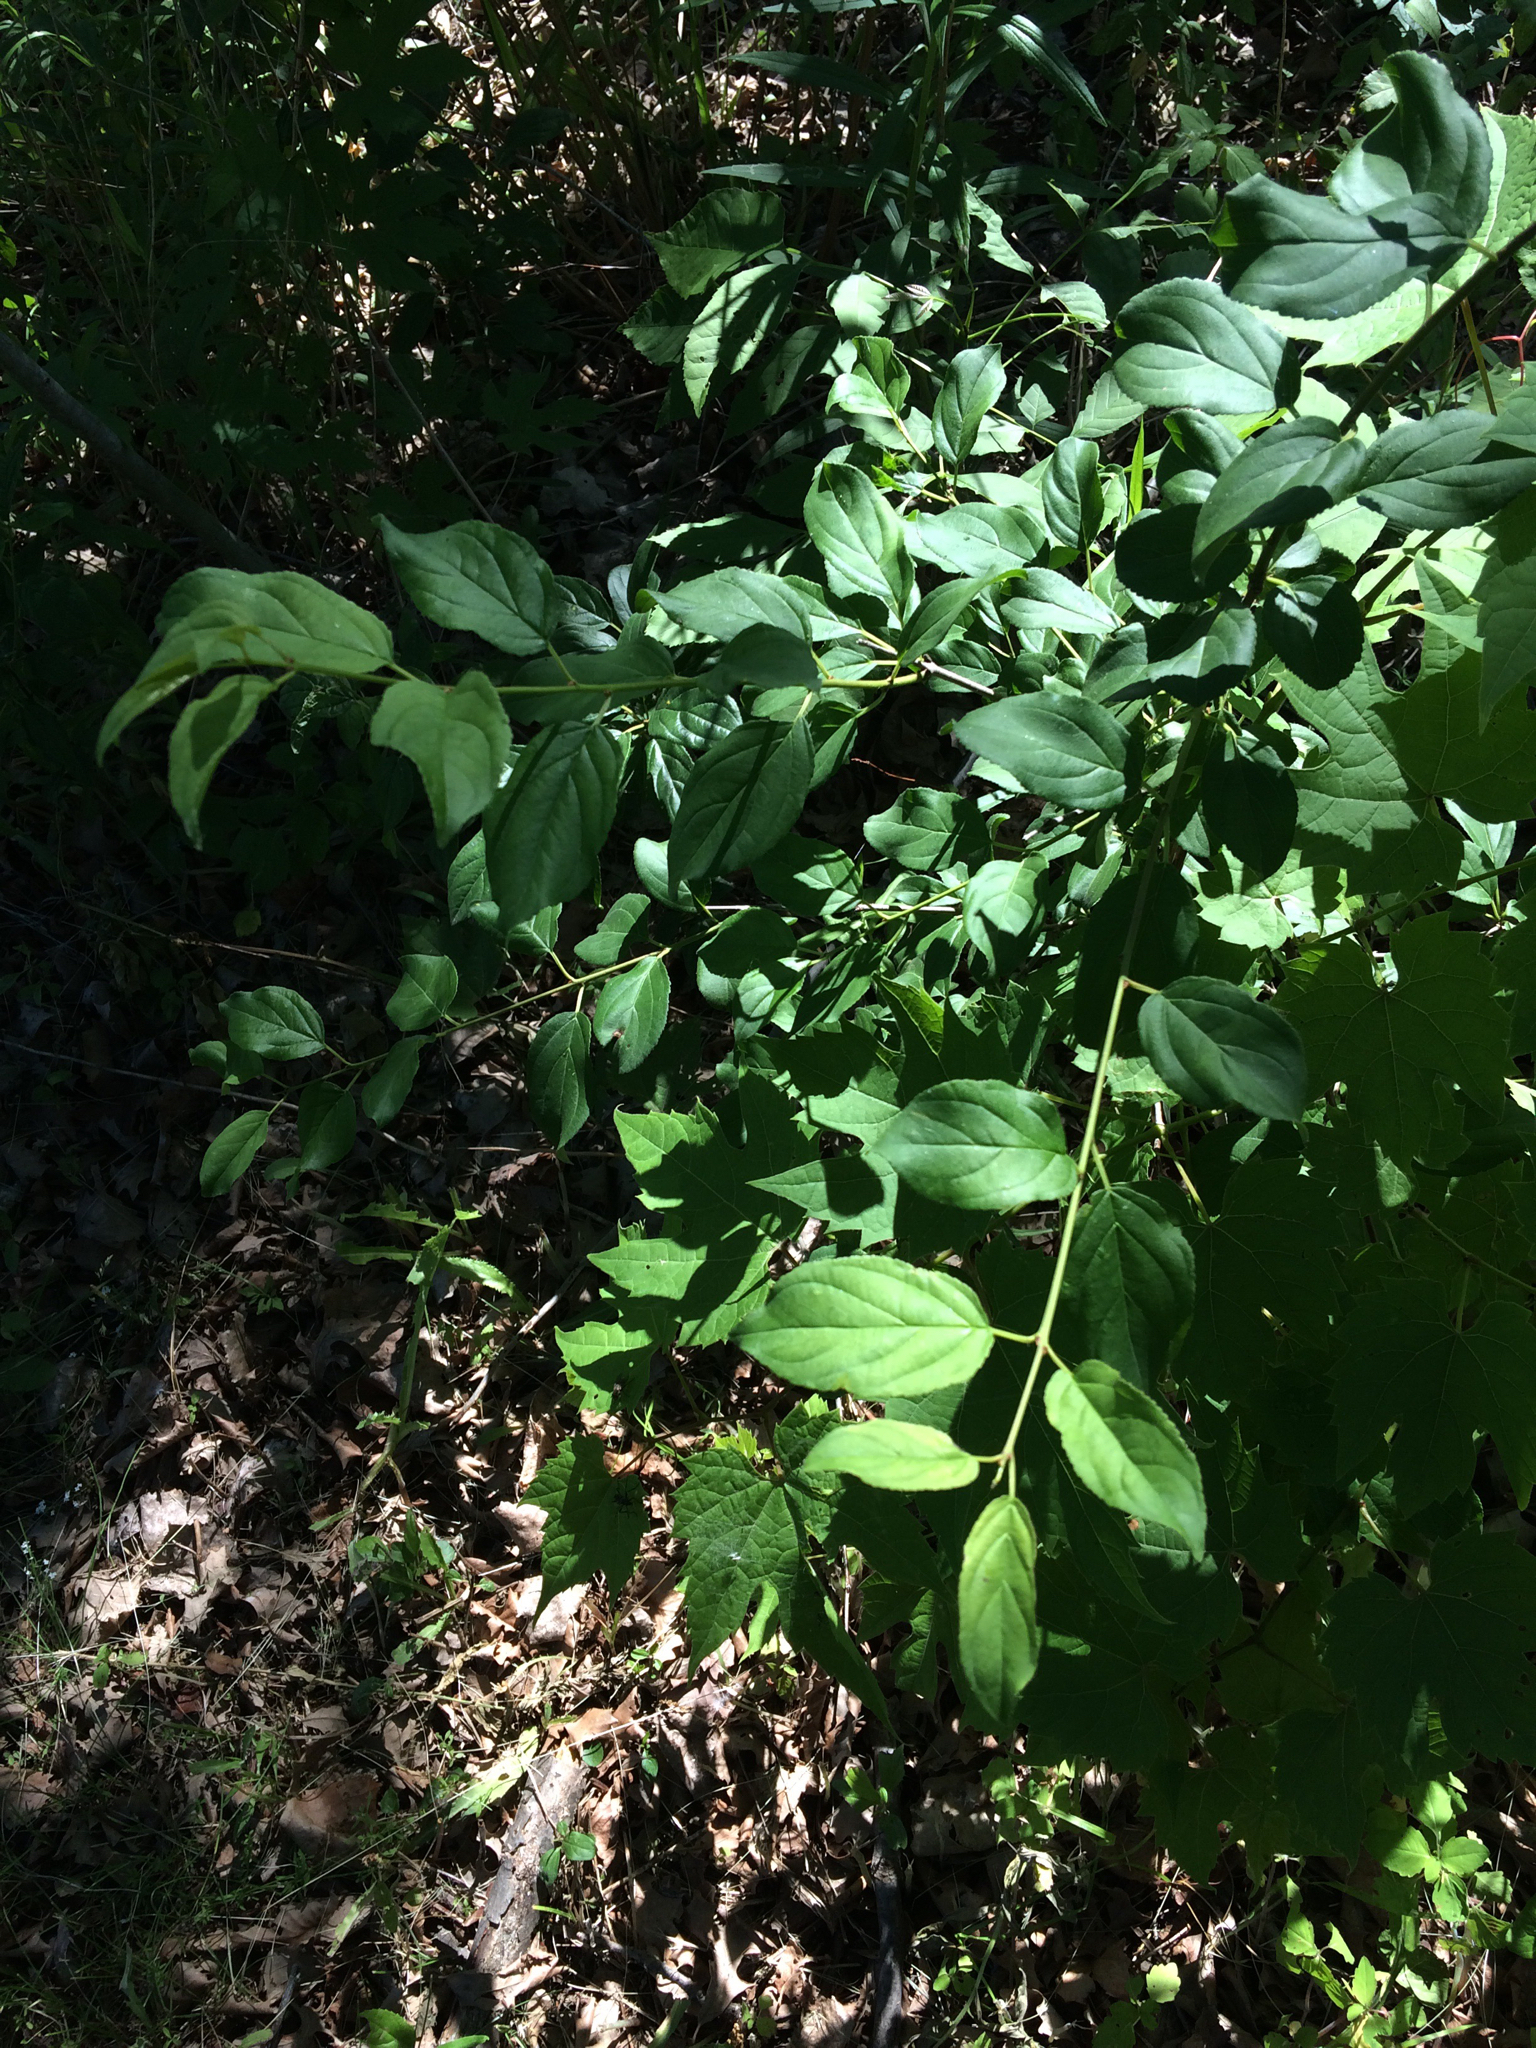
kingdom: Plantae
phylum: Tracheophyta
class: Magnoliopsida
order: Rosales
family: Rhamnaceae
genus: Rhamnus
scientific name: Rhamnus cathartica
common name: Common buckthorn
